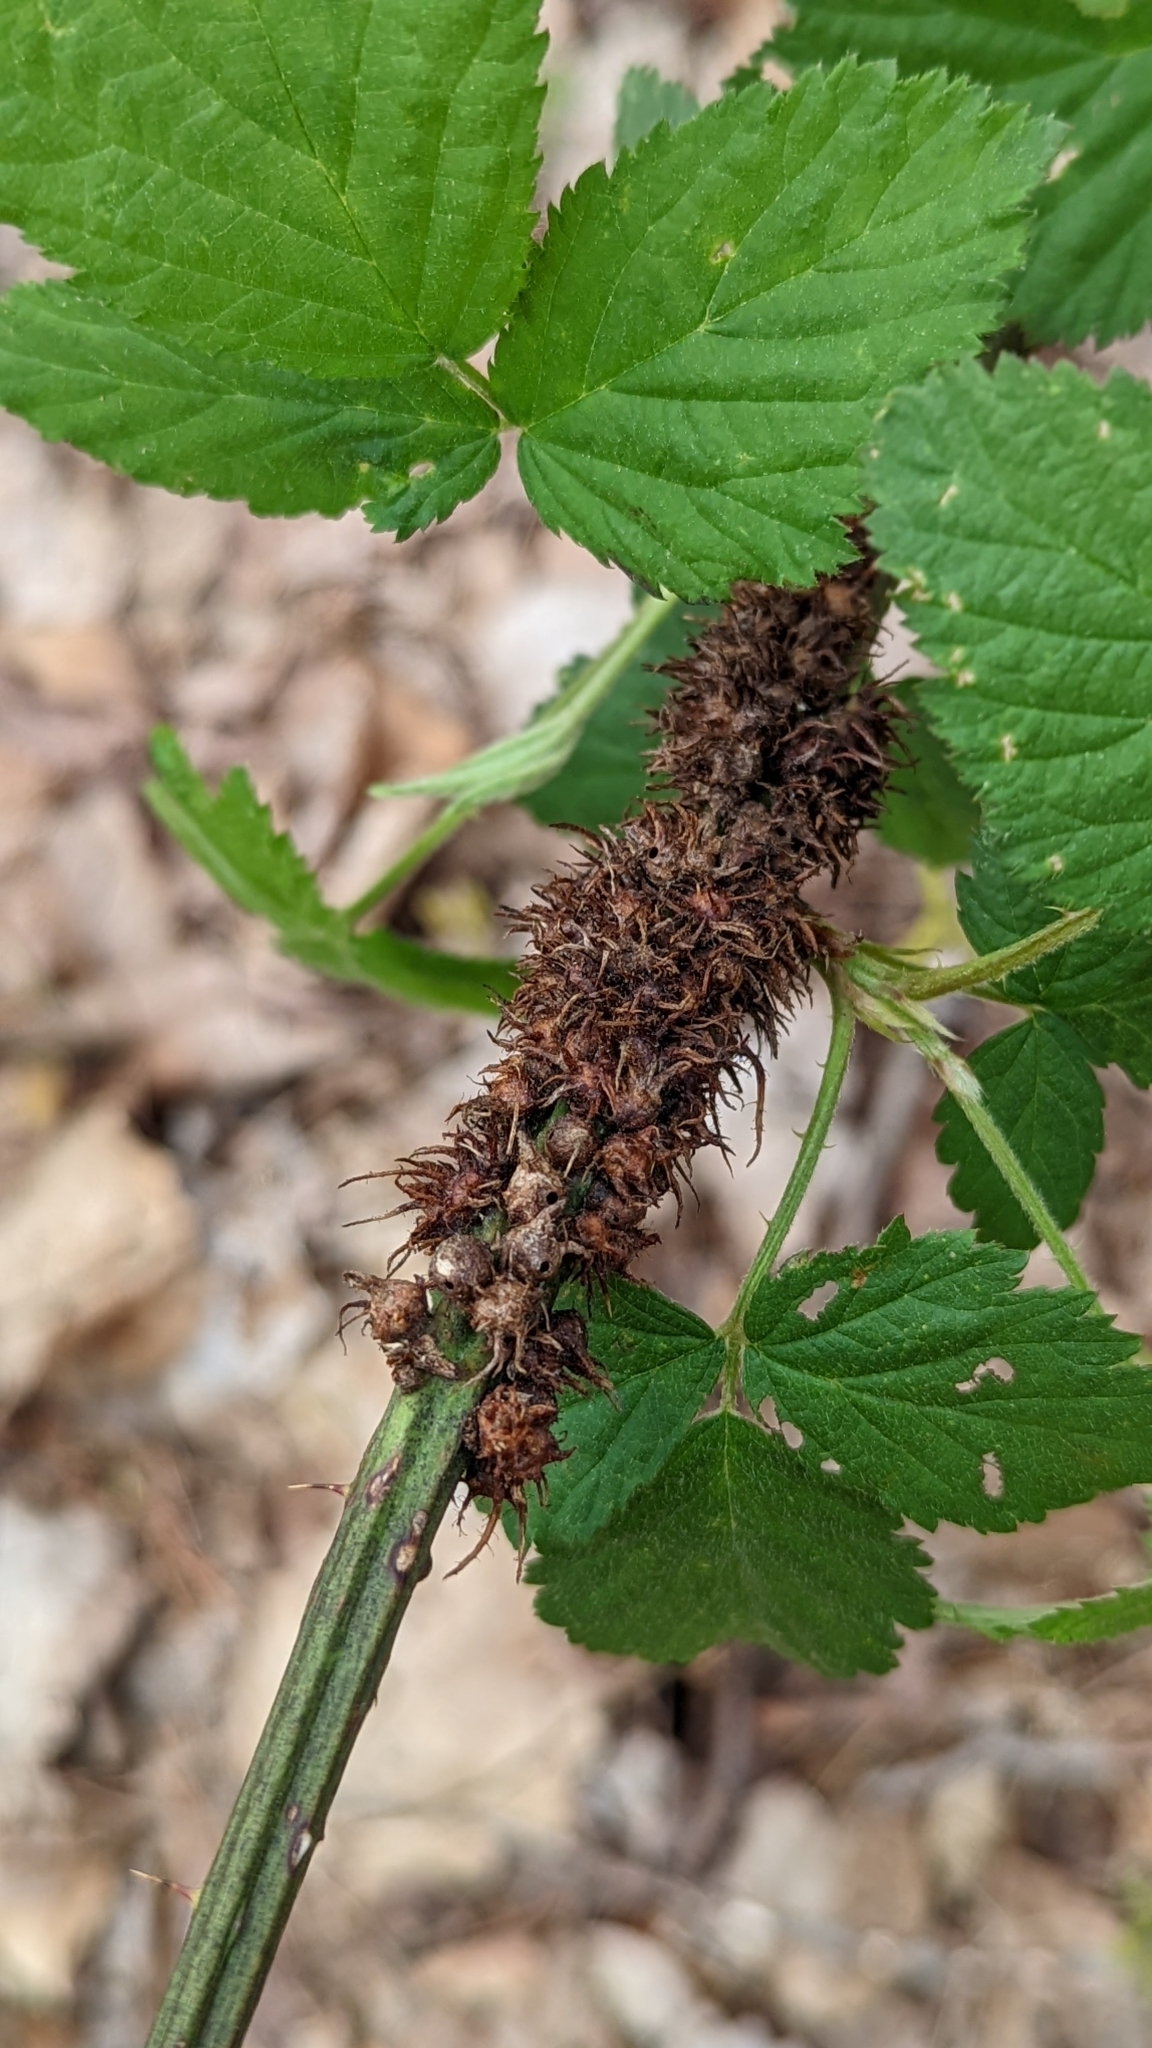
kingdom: Animalia
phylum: Arthropoda
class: Insecta
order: Hymenoptera
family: Cynipidae
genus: Diastrophus
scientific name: Diastrophus
